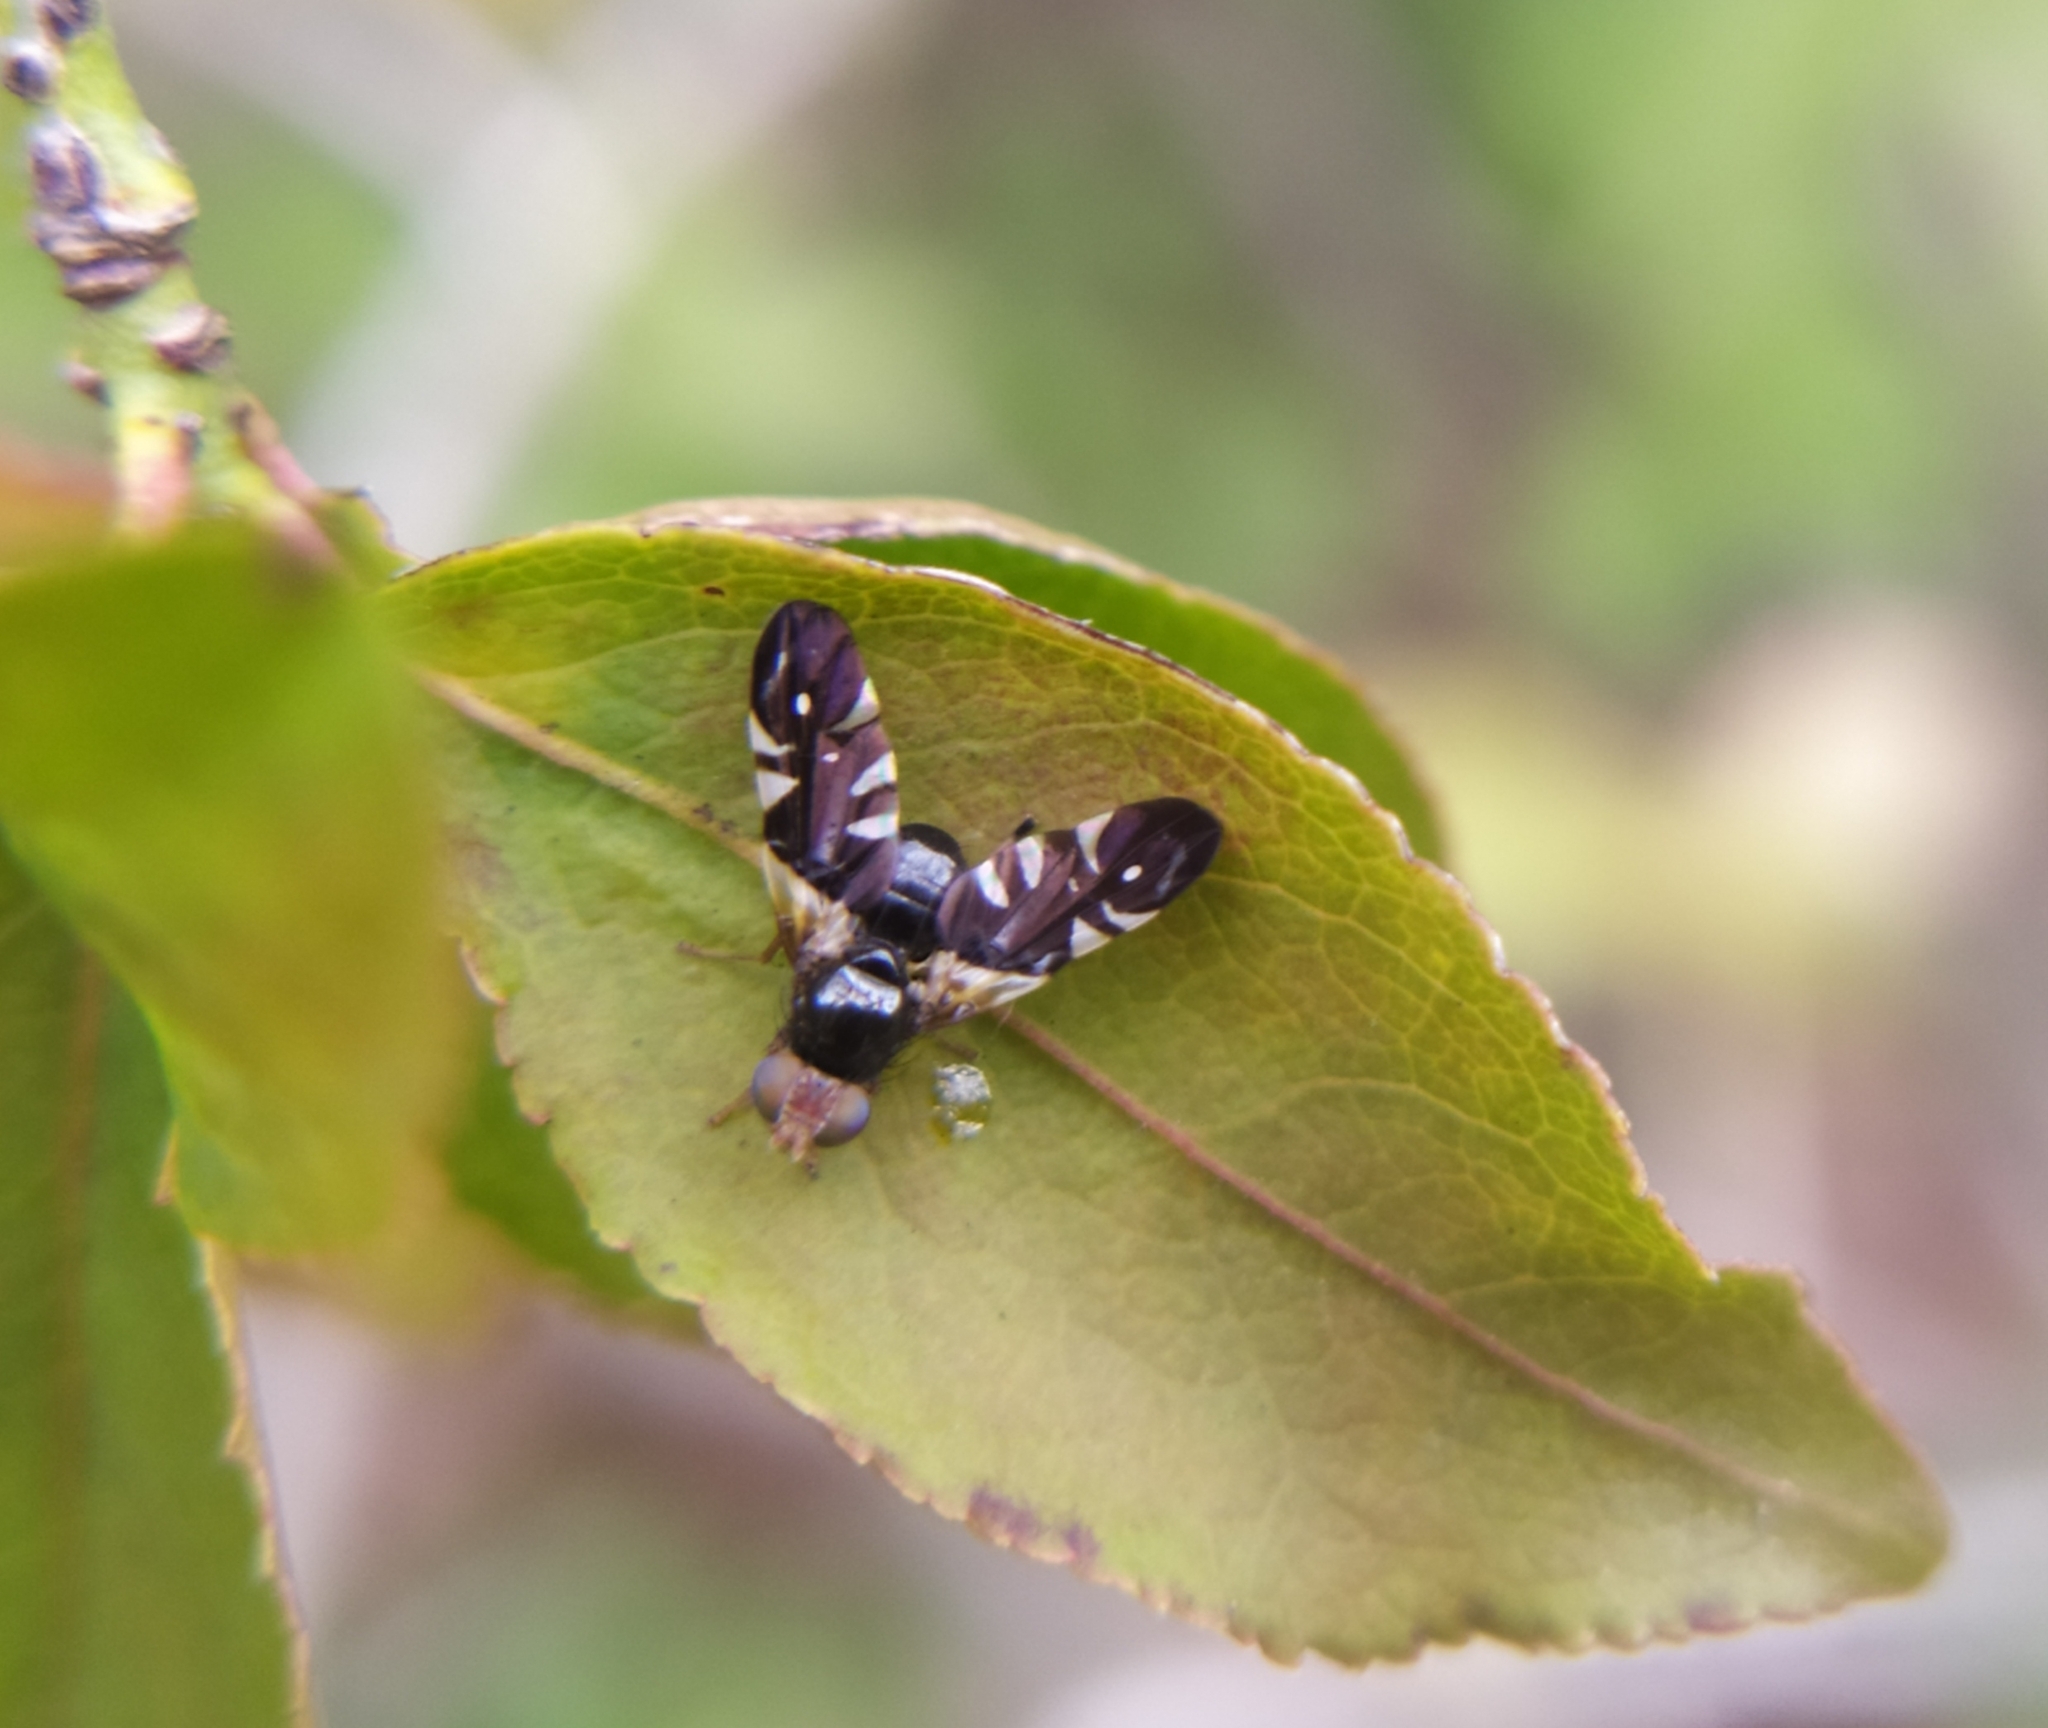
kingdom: Animalia
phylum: Arthropoda
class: Insecta
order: Diptera
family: Tephritidae
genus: Aciura
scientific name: Aciura coryli
